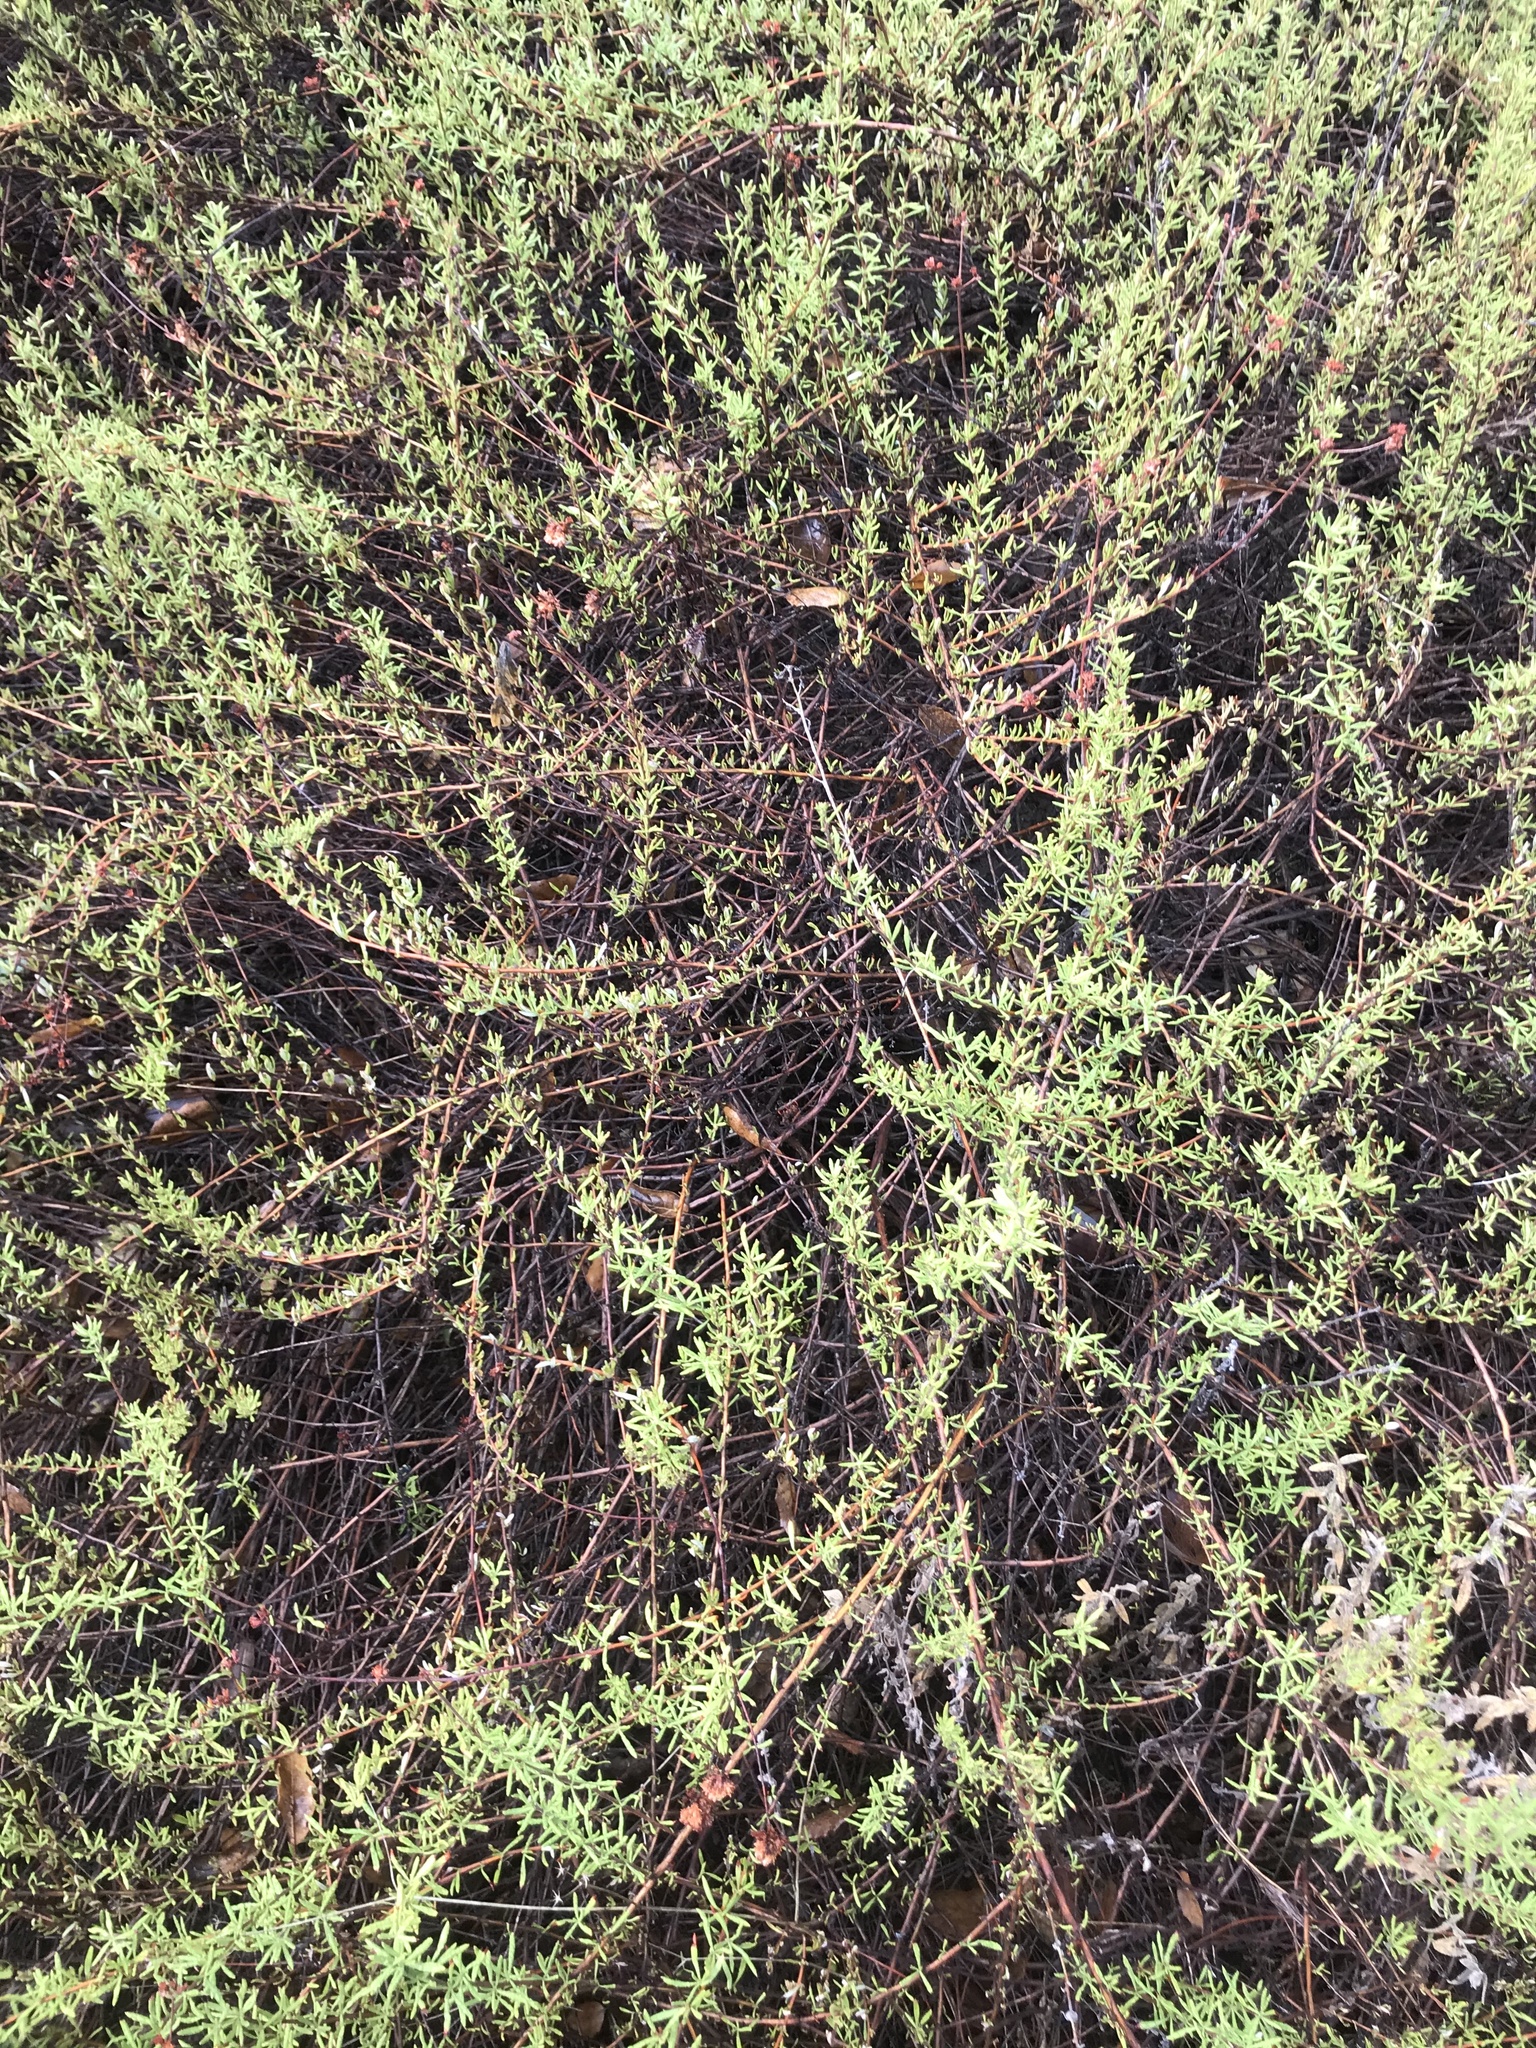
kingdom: Plantae
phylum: Tracheophyta
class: Magnoliopsida
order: Caryophyllales
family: Polygonaceae
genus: Eriogonum
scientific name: Eriogonum fasciculatum
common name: California wild buckwheat
